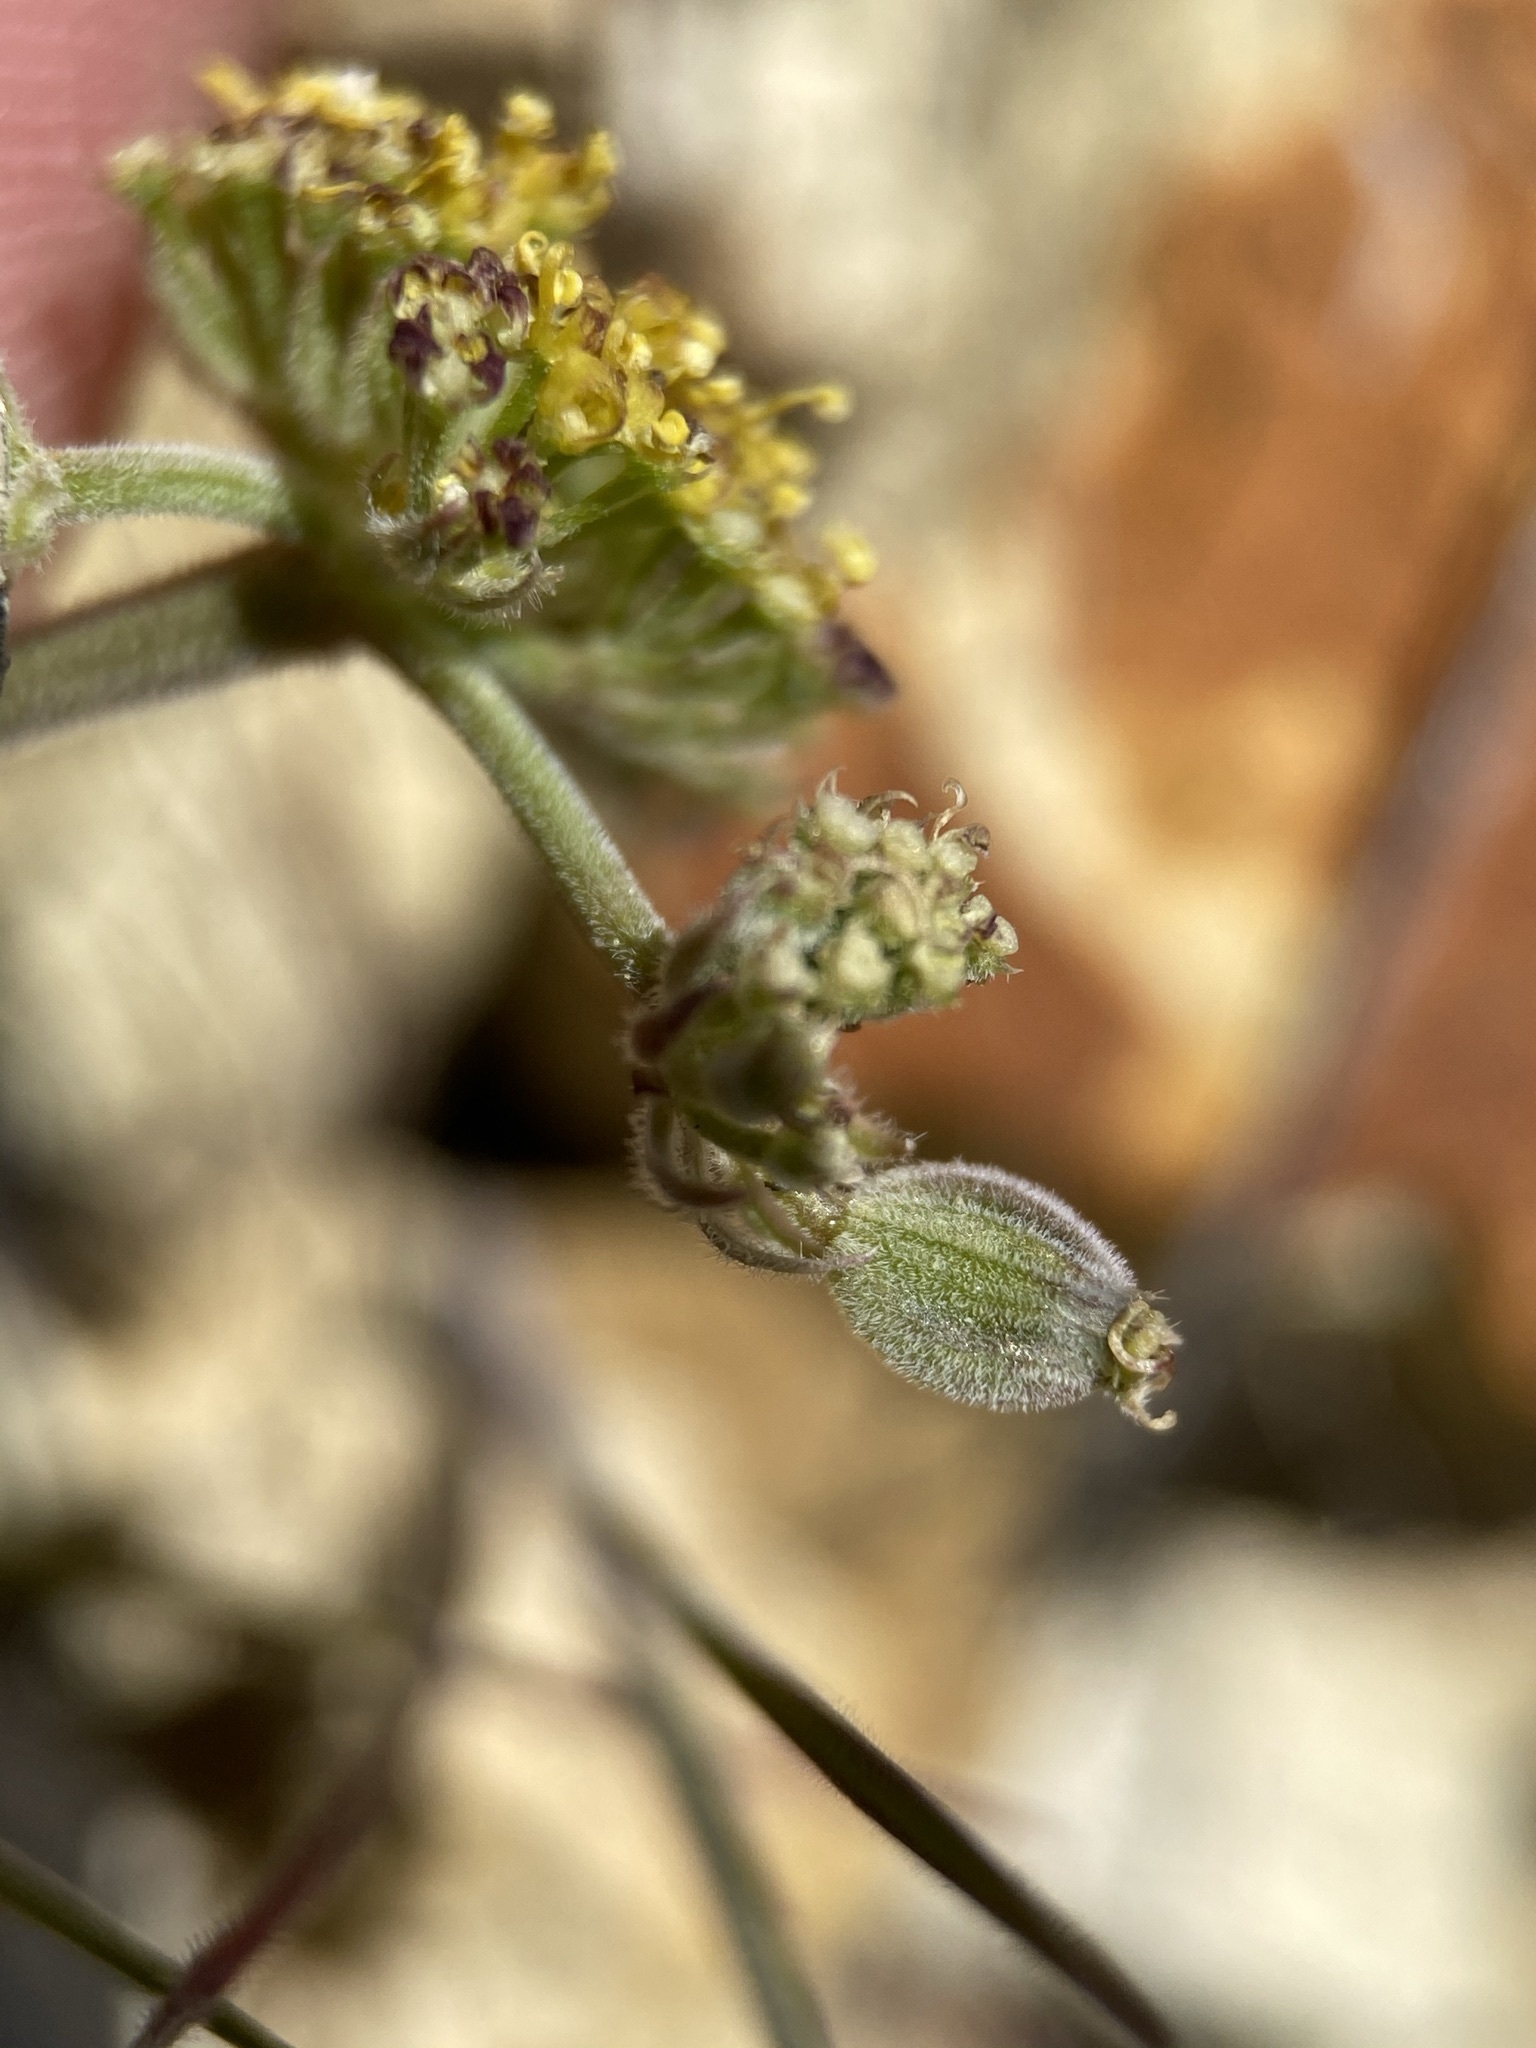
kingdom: Plantae
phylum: Tracheophyta
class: Magnoliopsida
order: Apiales
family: Apiaceae
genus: Lomatium
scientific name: Lomatium foeniculaceum
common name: Desert-parsley
